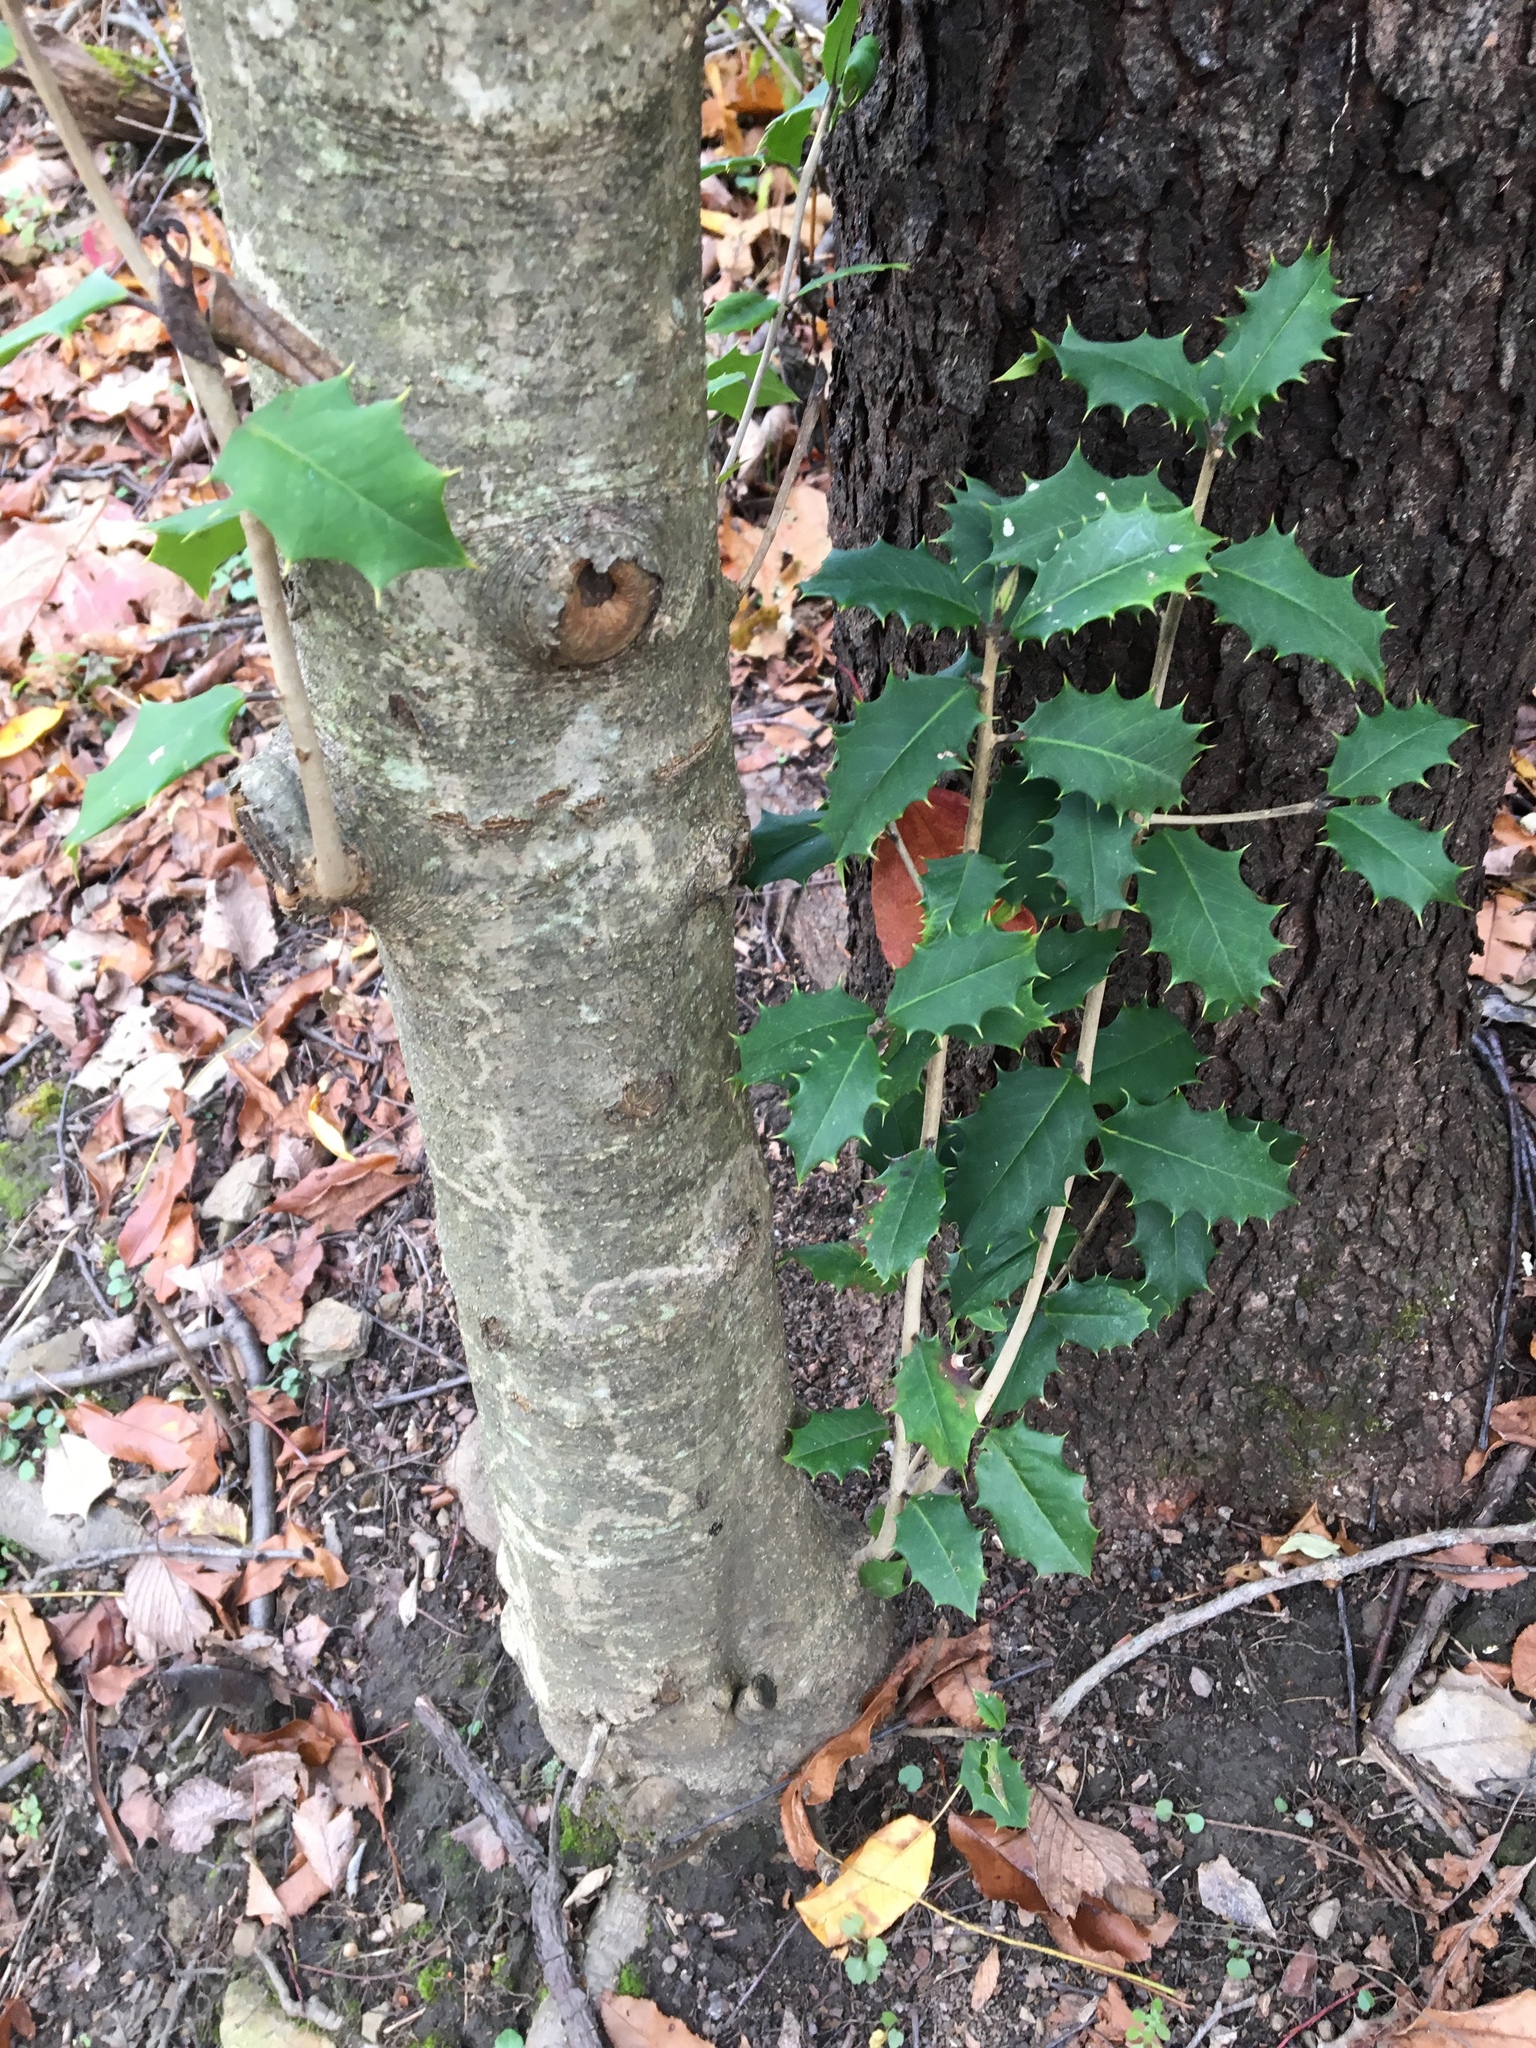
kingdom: Plantae
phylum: Tracheophyta
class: Magnoliopsida
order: Aquifoliales
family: Aquifoliaceae
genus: Ilex
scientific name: Ilex opaca
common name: American holly
